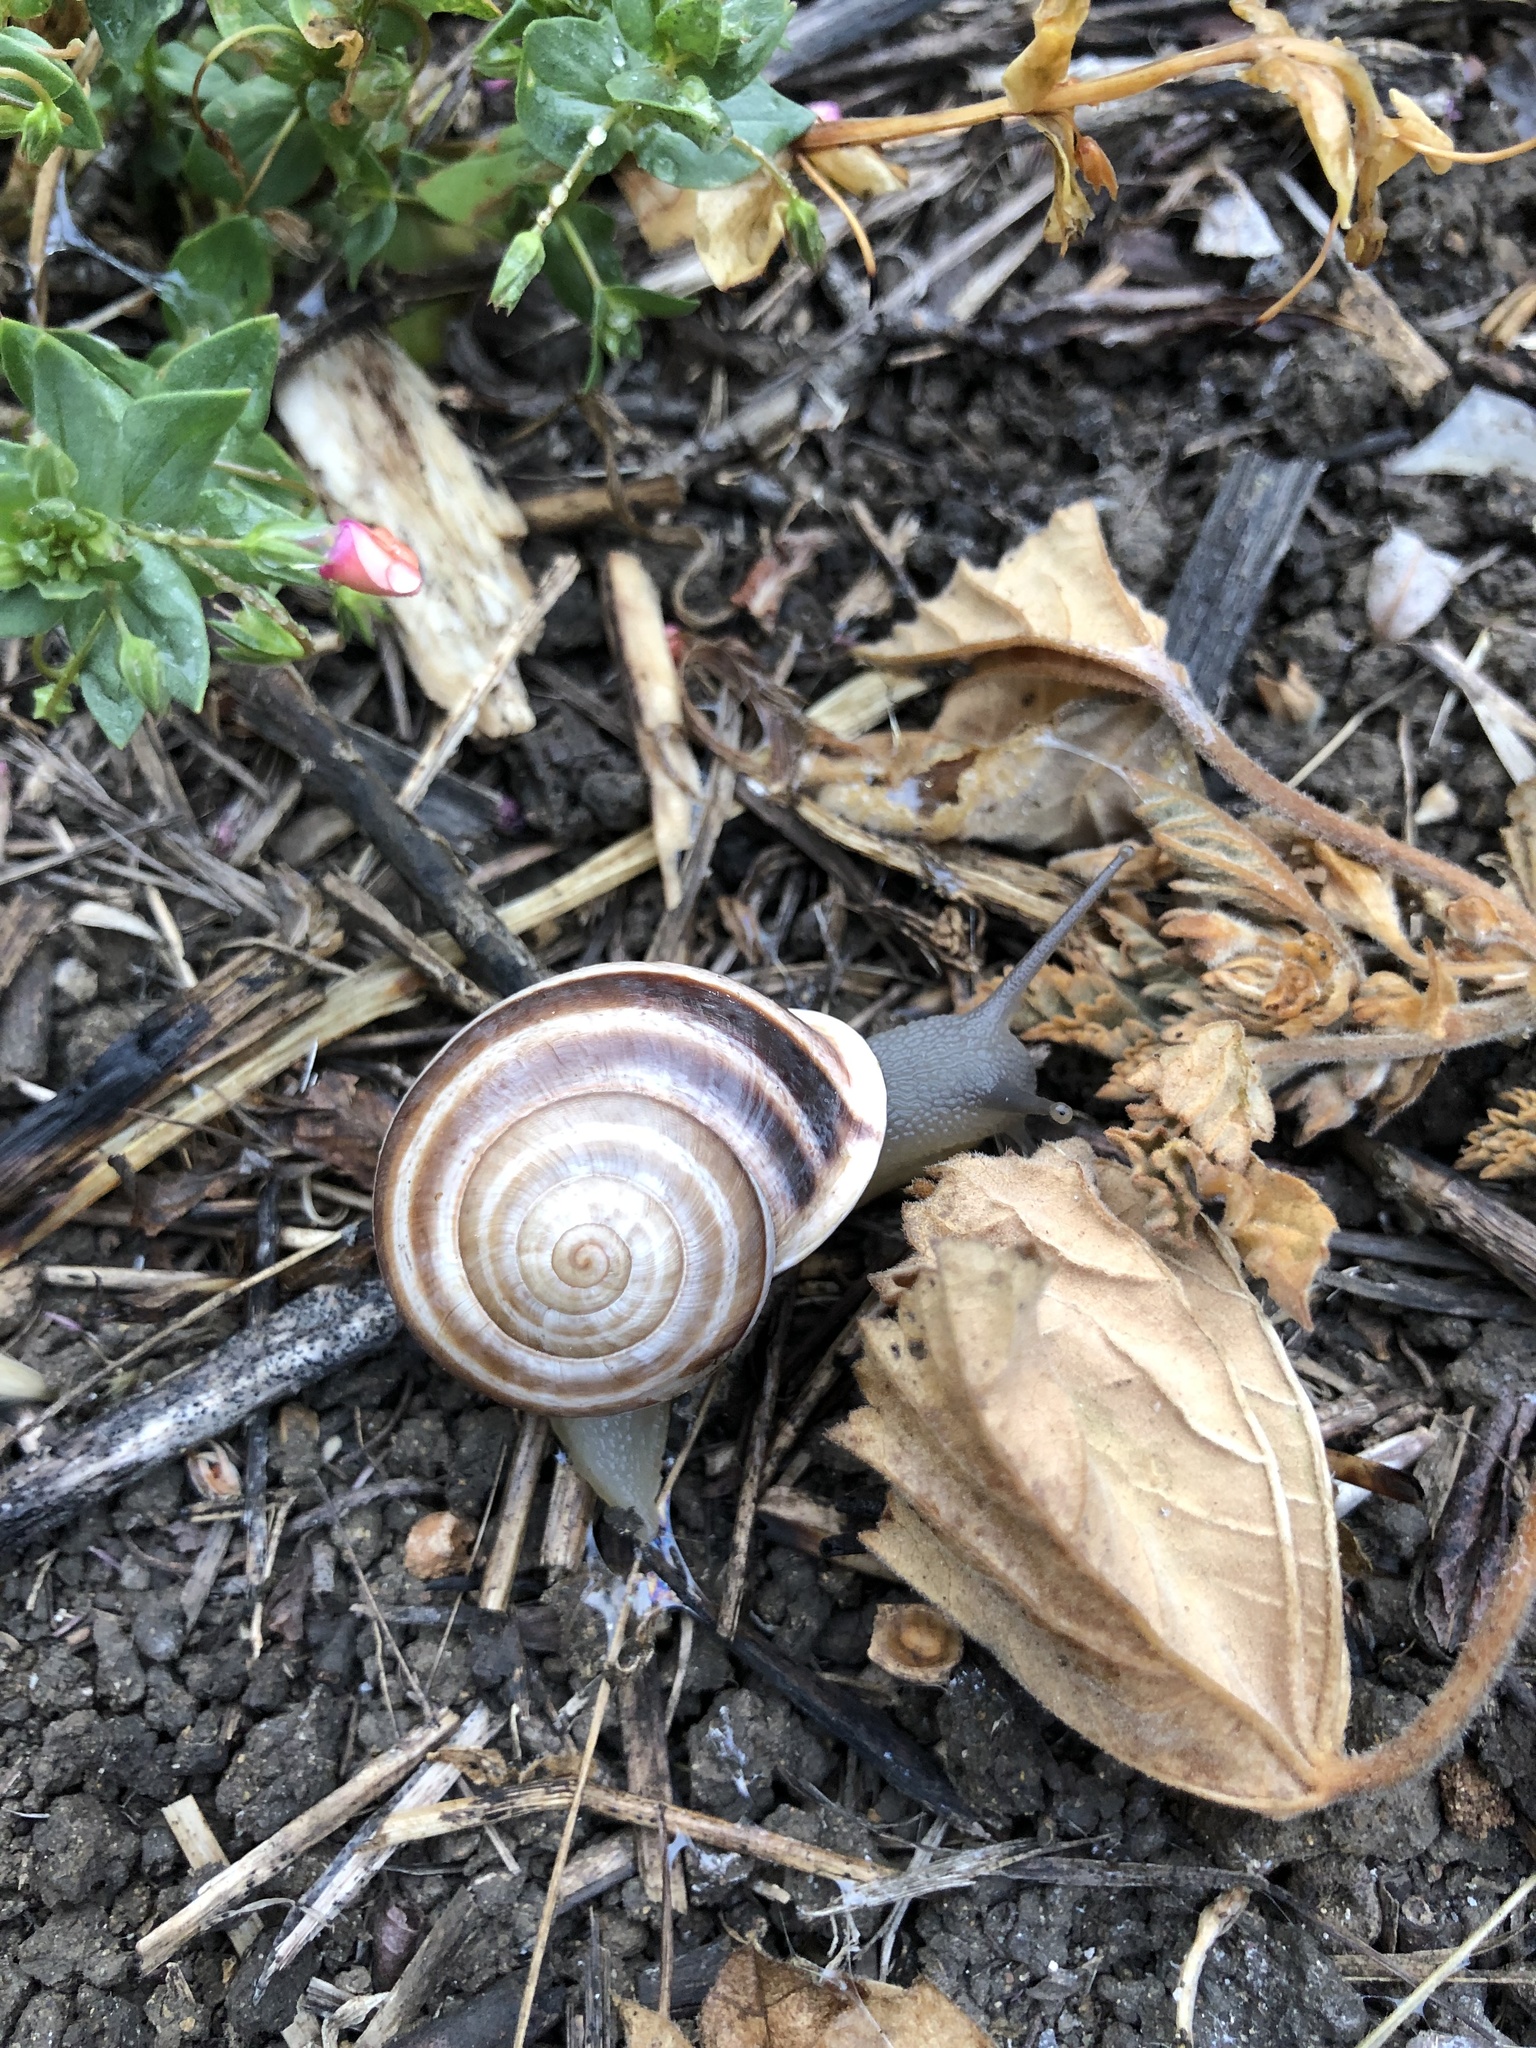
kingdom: Animalia
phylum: Mollusca
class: Gastropoda
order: Stylommatophora
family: Helicidae
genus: Otala
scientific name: Otala lactea
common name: Milk snail
